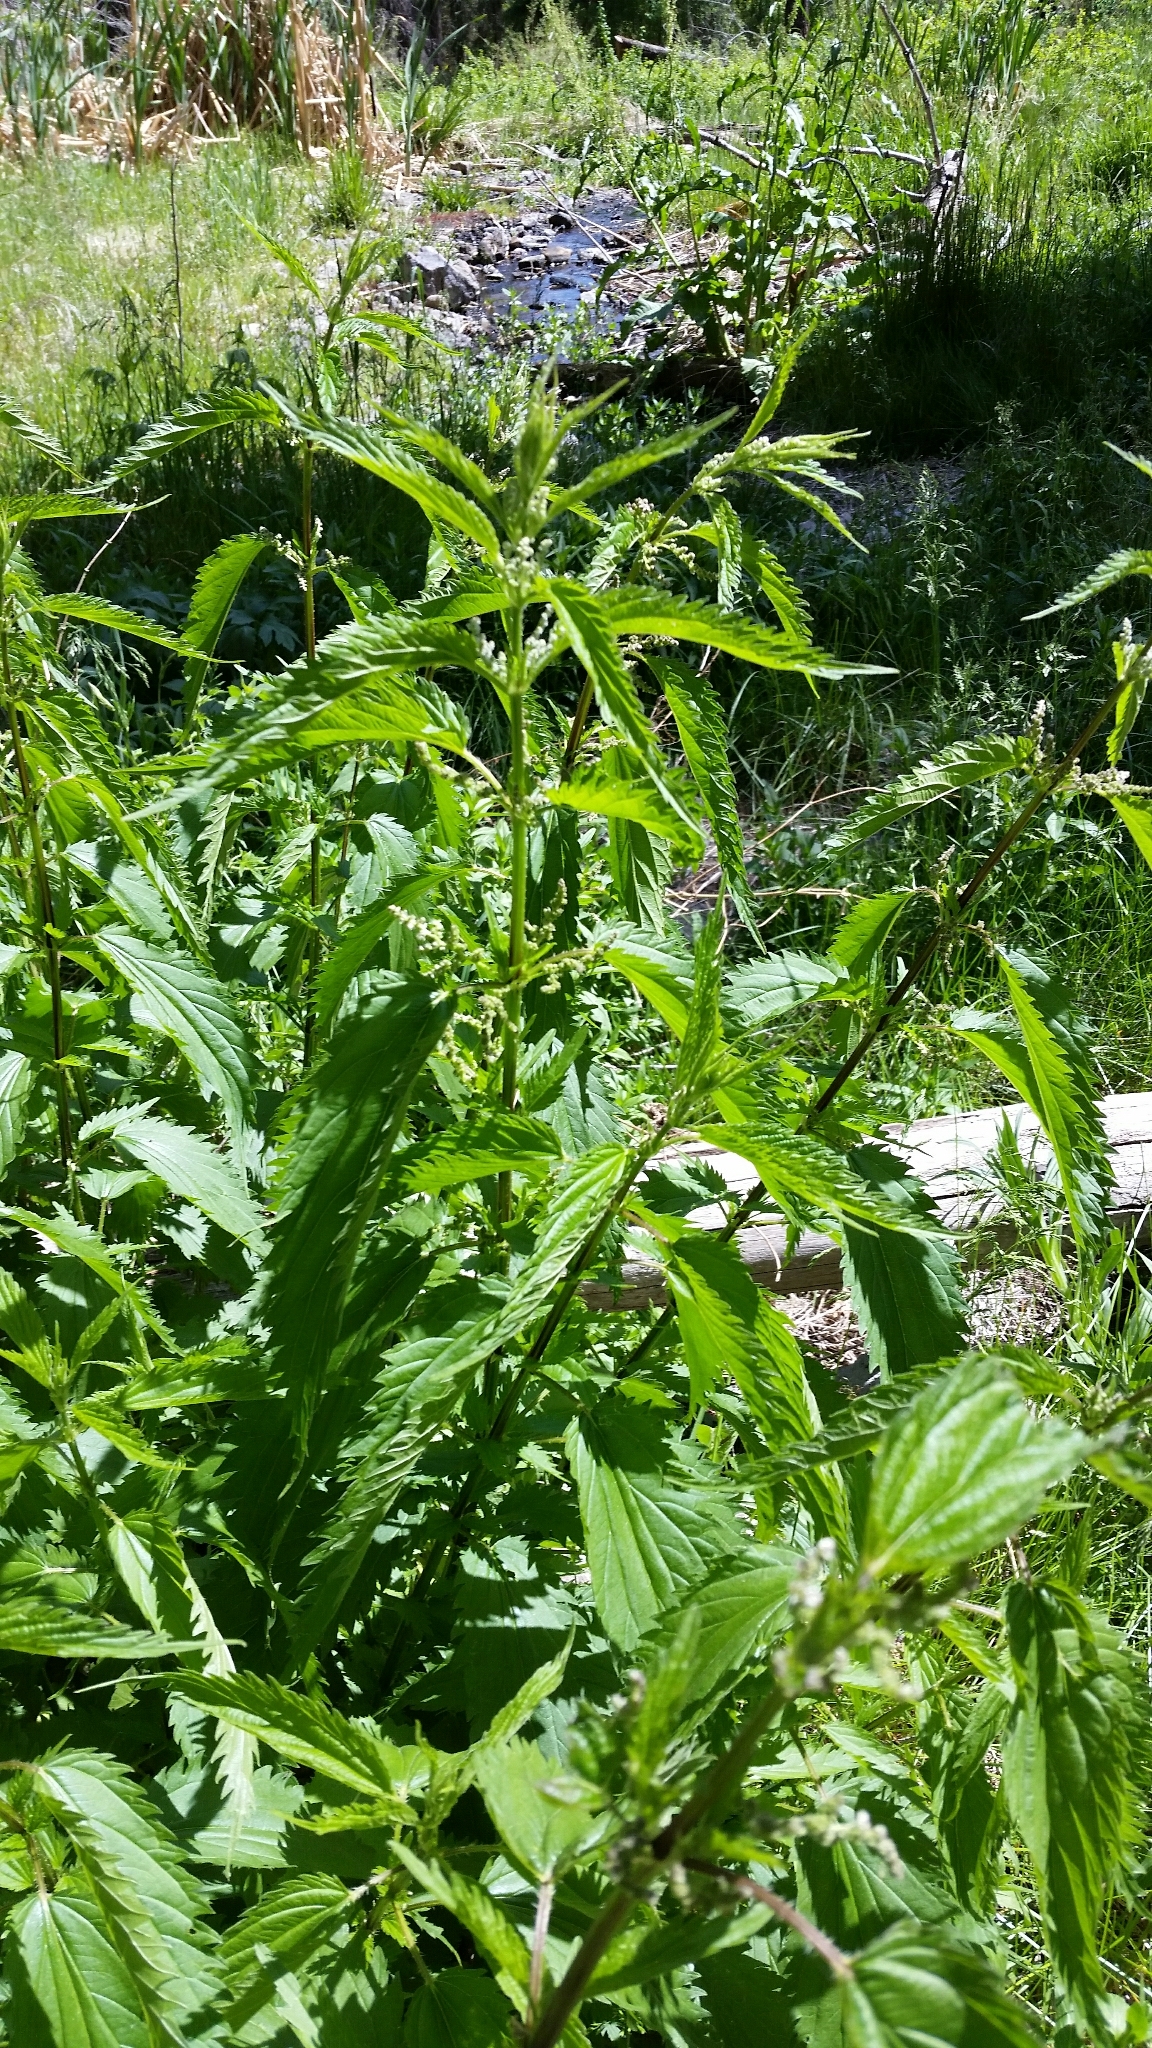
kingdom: Plantae
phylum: Tracheophyta
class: Magnoliopsida
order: Rosales
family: Urticaceae
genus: Urtica
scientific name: Urtica gracilis
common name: Slender stinging nettle
